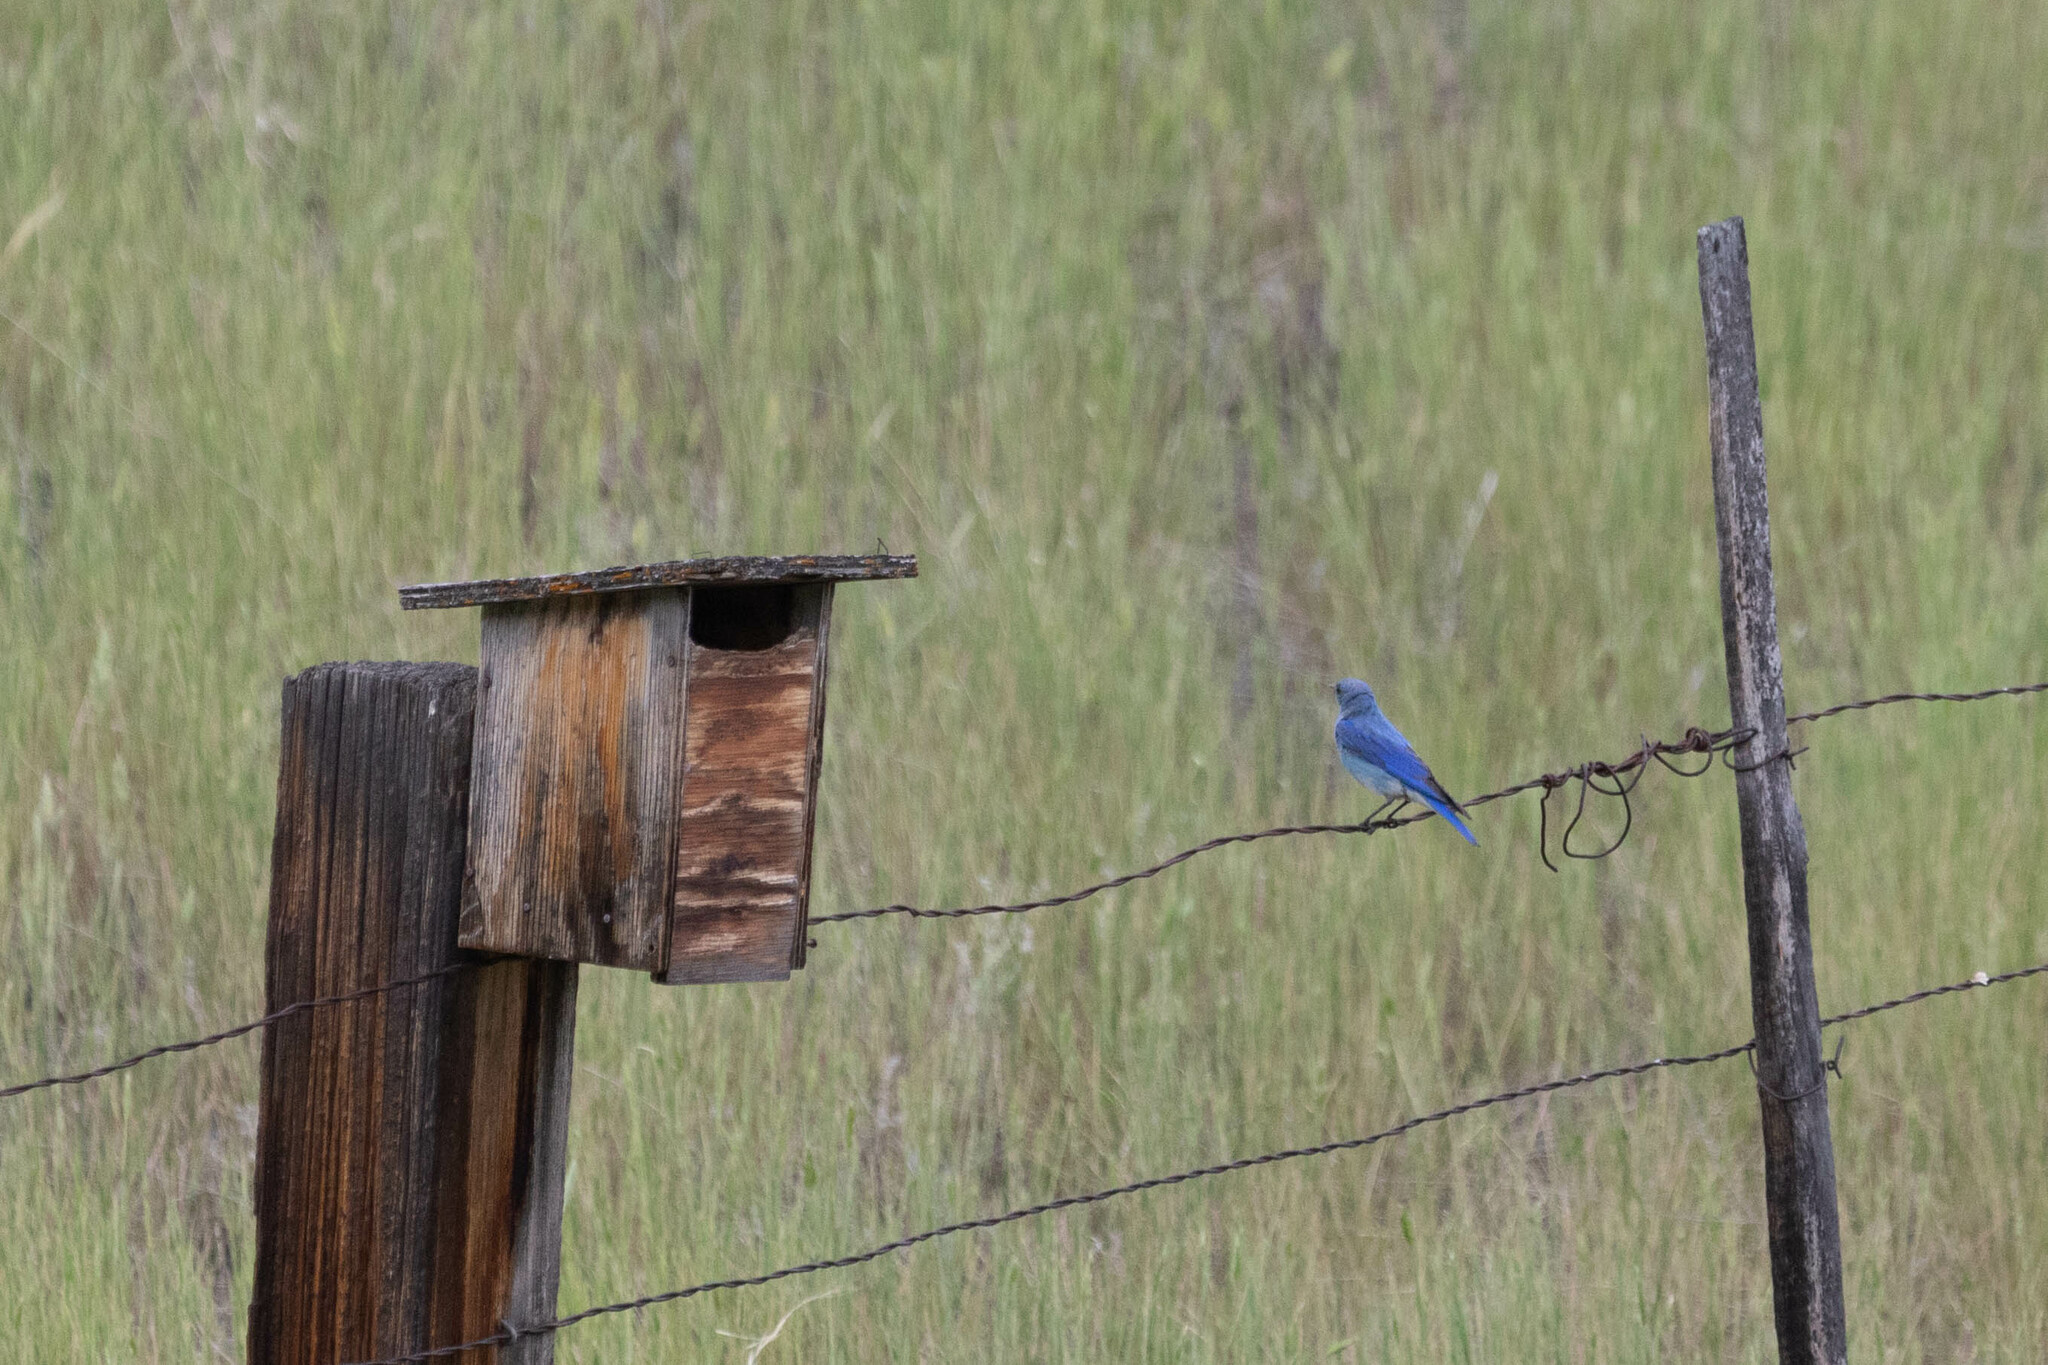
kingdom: Animalia
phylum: Chordata
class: Aves
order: Passeriformes
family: Turdidae
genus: Sialia
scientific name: Sialia currucoides
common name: Mountain bluebird
